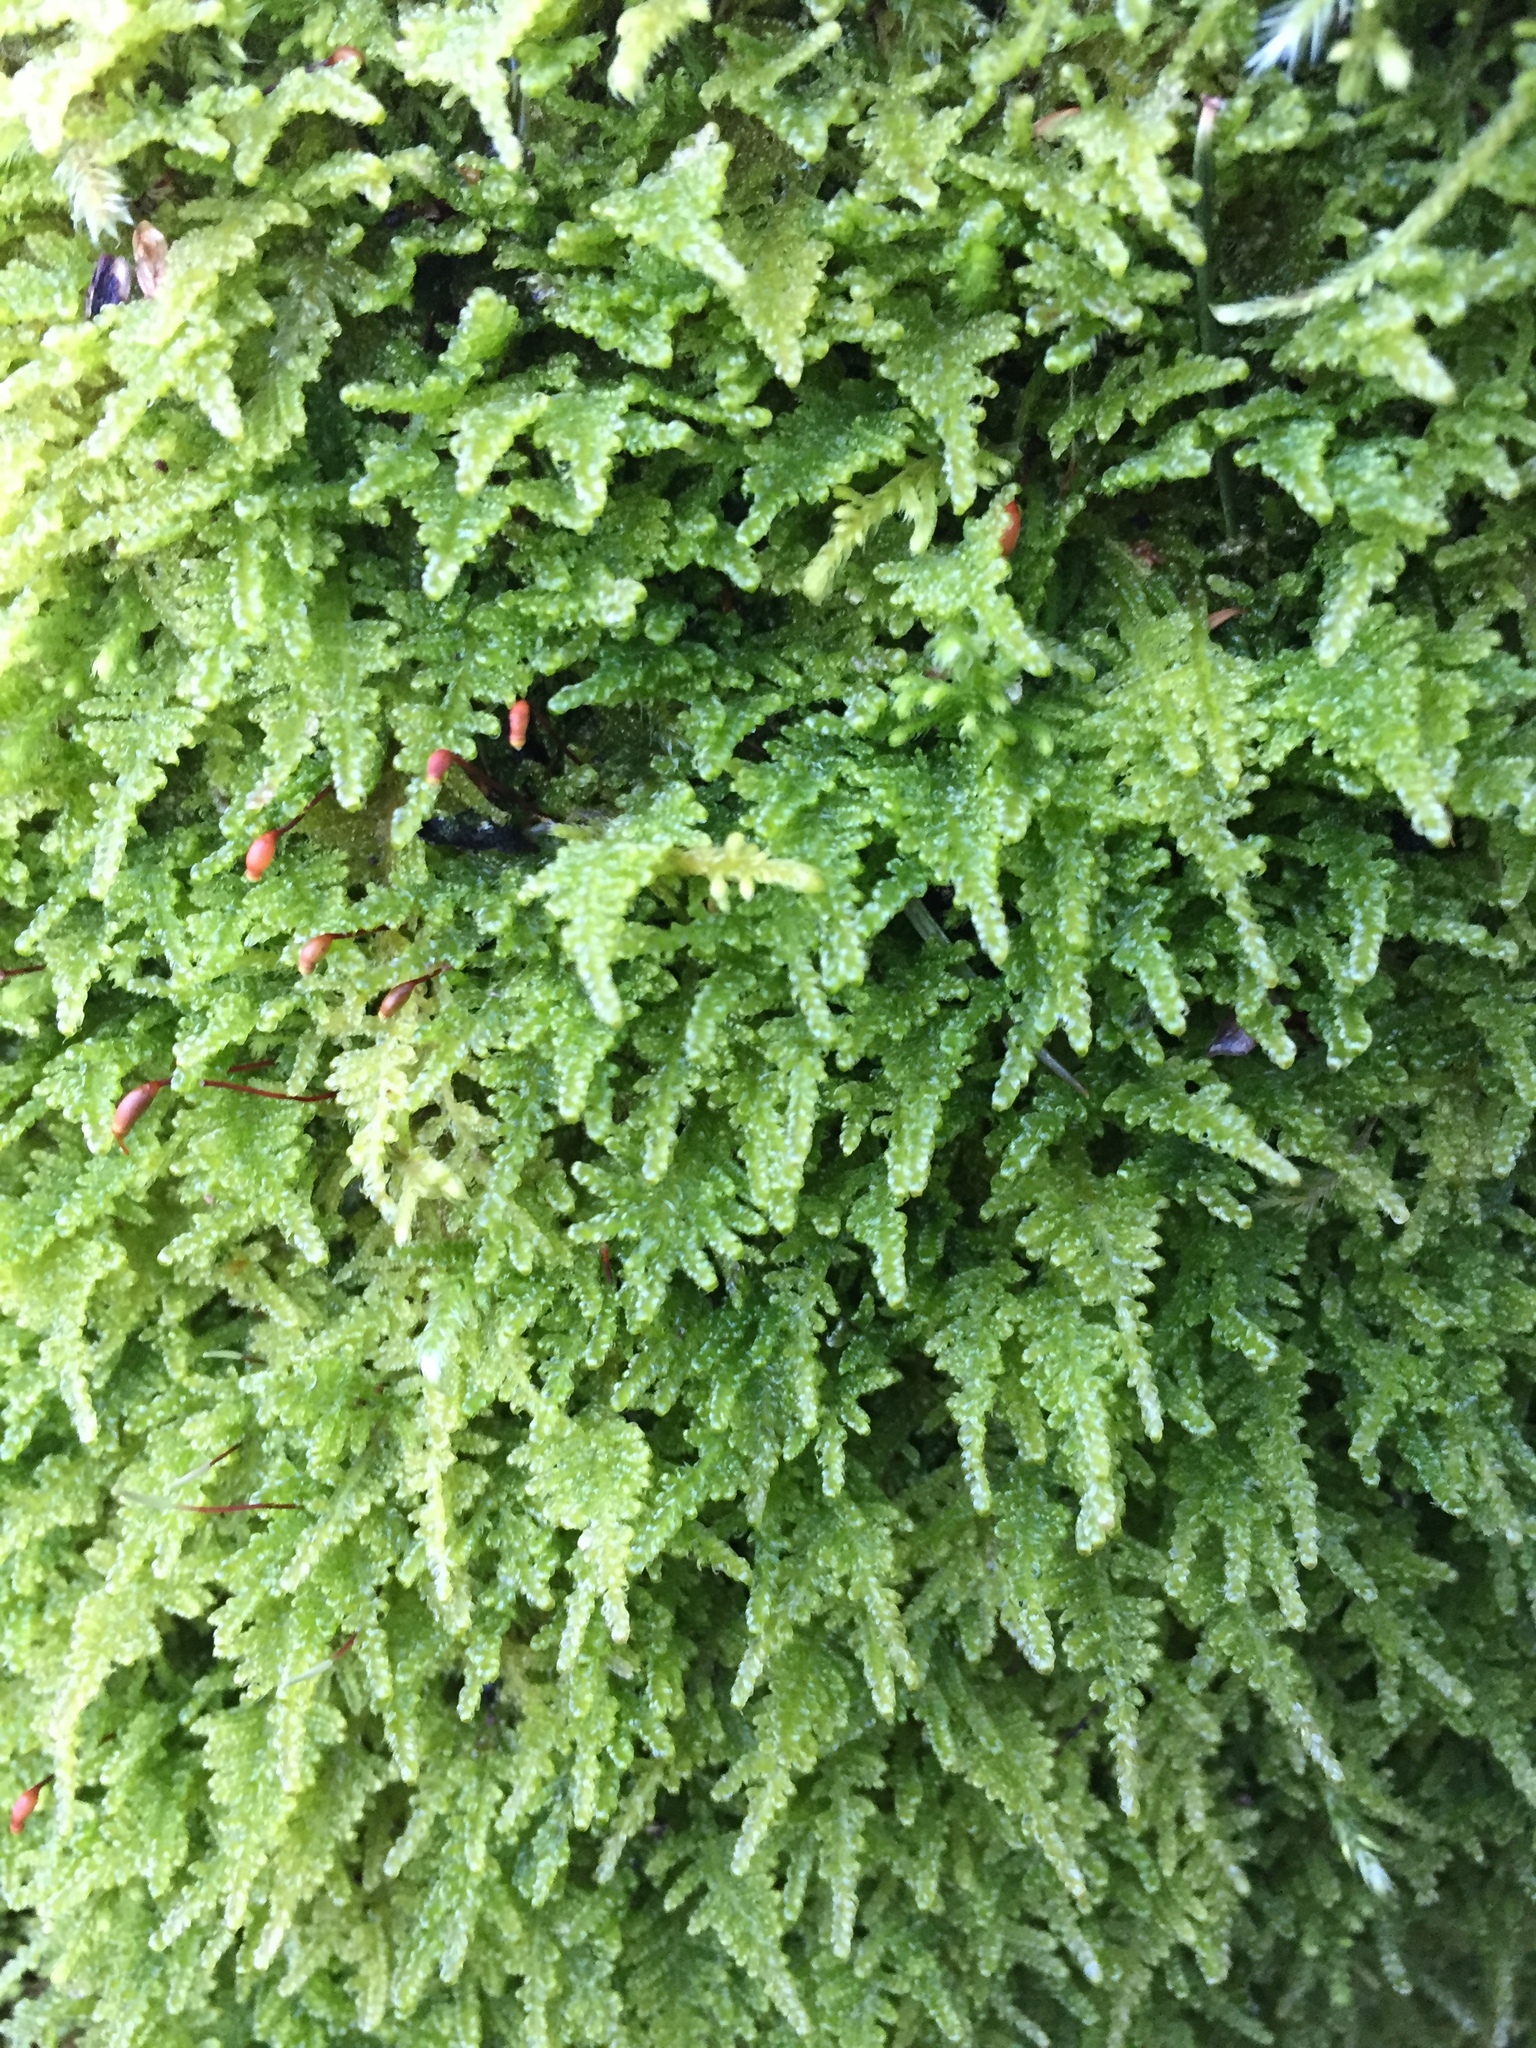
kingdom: Plantae
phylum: Bryophyta
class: Bryopsida
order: Hypnales
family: Stereodontaceae
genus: Stereodon
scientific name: Stereodon subimponens
